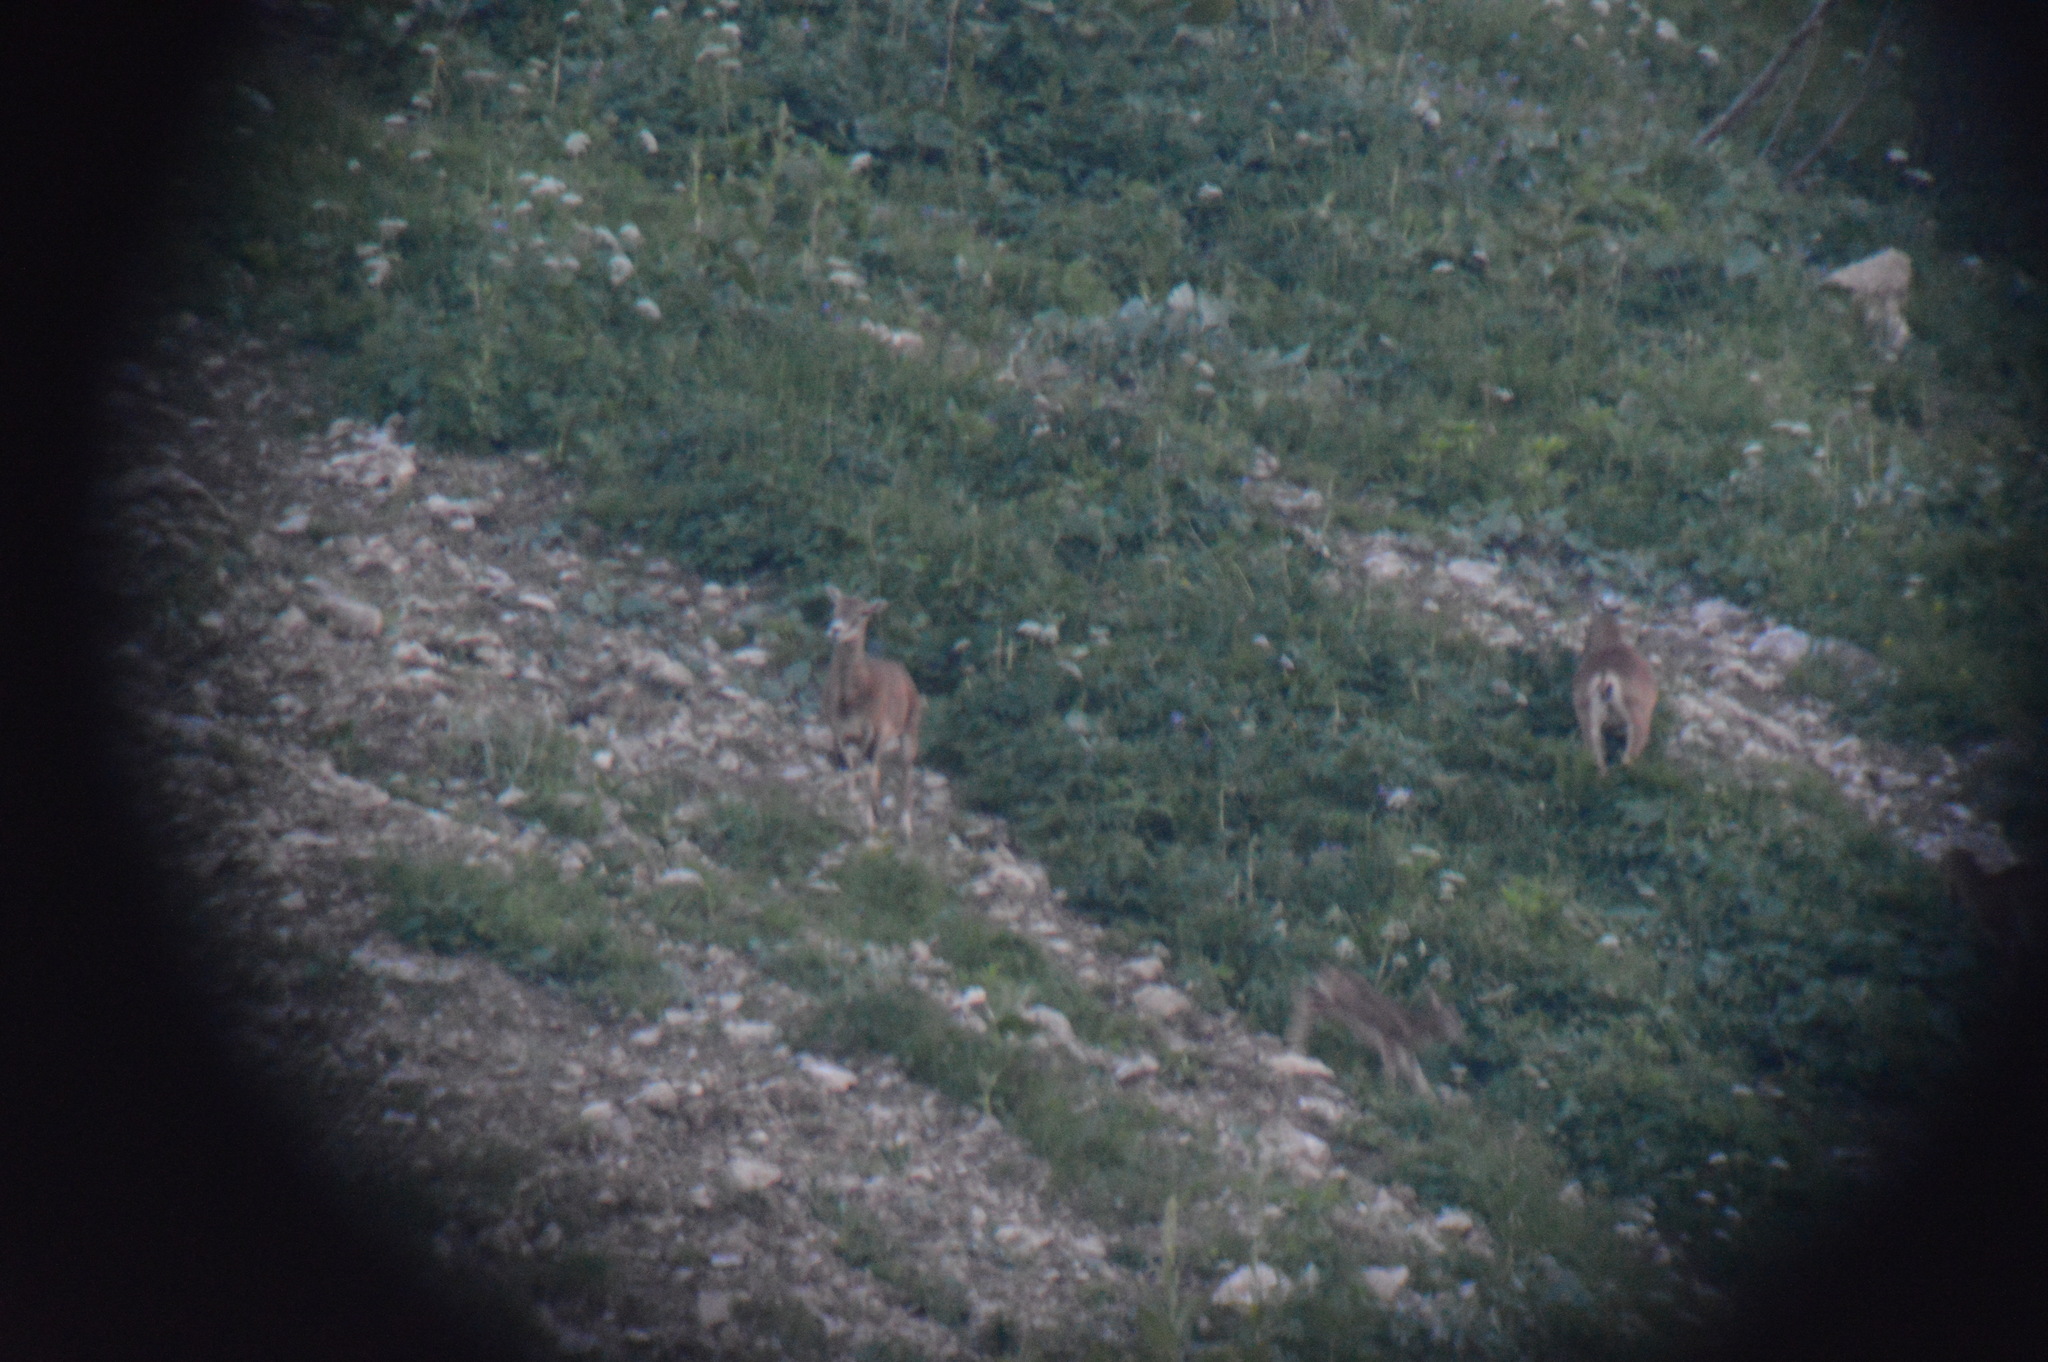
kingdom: Animalia
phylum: Chordata
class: Mammalia
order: Artiodactyla
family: Bovidae
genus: Ovis
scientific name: Ovis aries
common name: Domestic sheep
